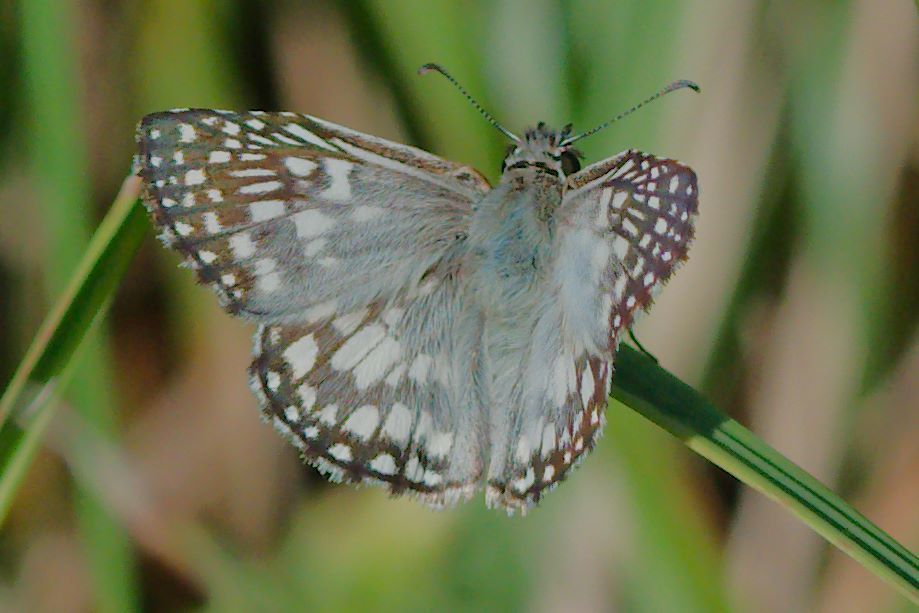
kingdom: Animalia
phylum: Arthropoda
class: Insecta
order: Lepidoptera
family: Hesperiidae
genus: Pyrgus
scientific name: Pyrgus oileus
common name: Tropical checkered-skipper
